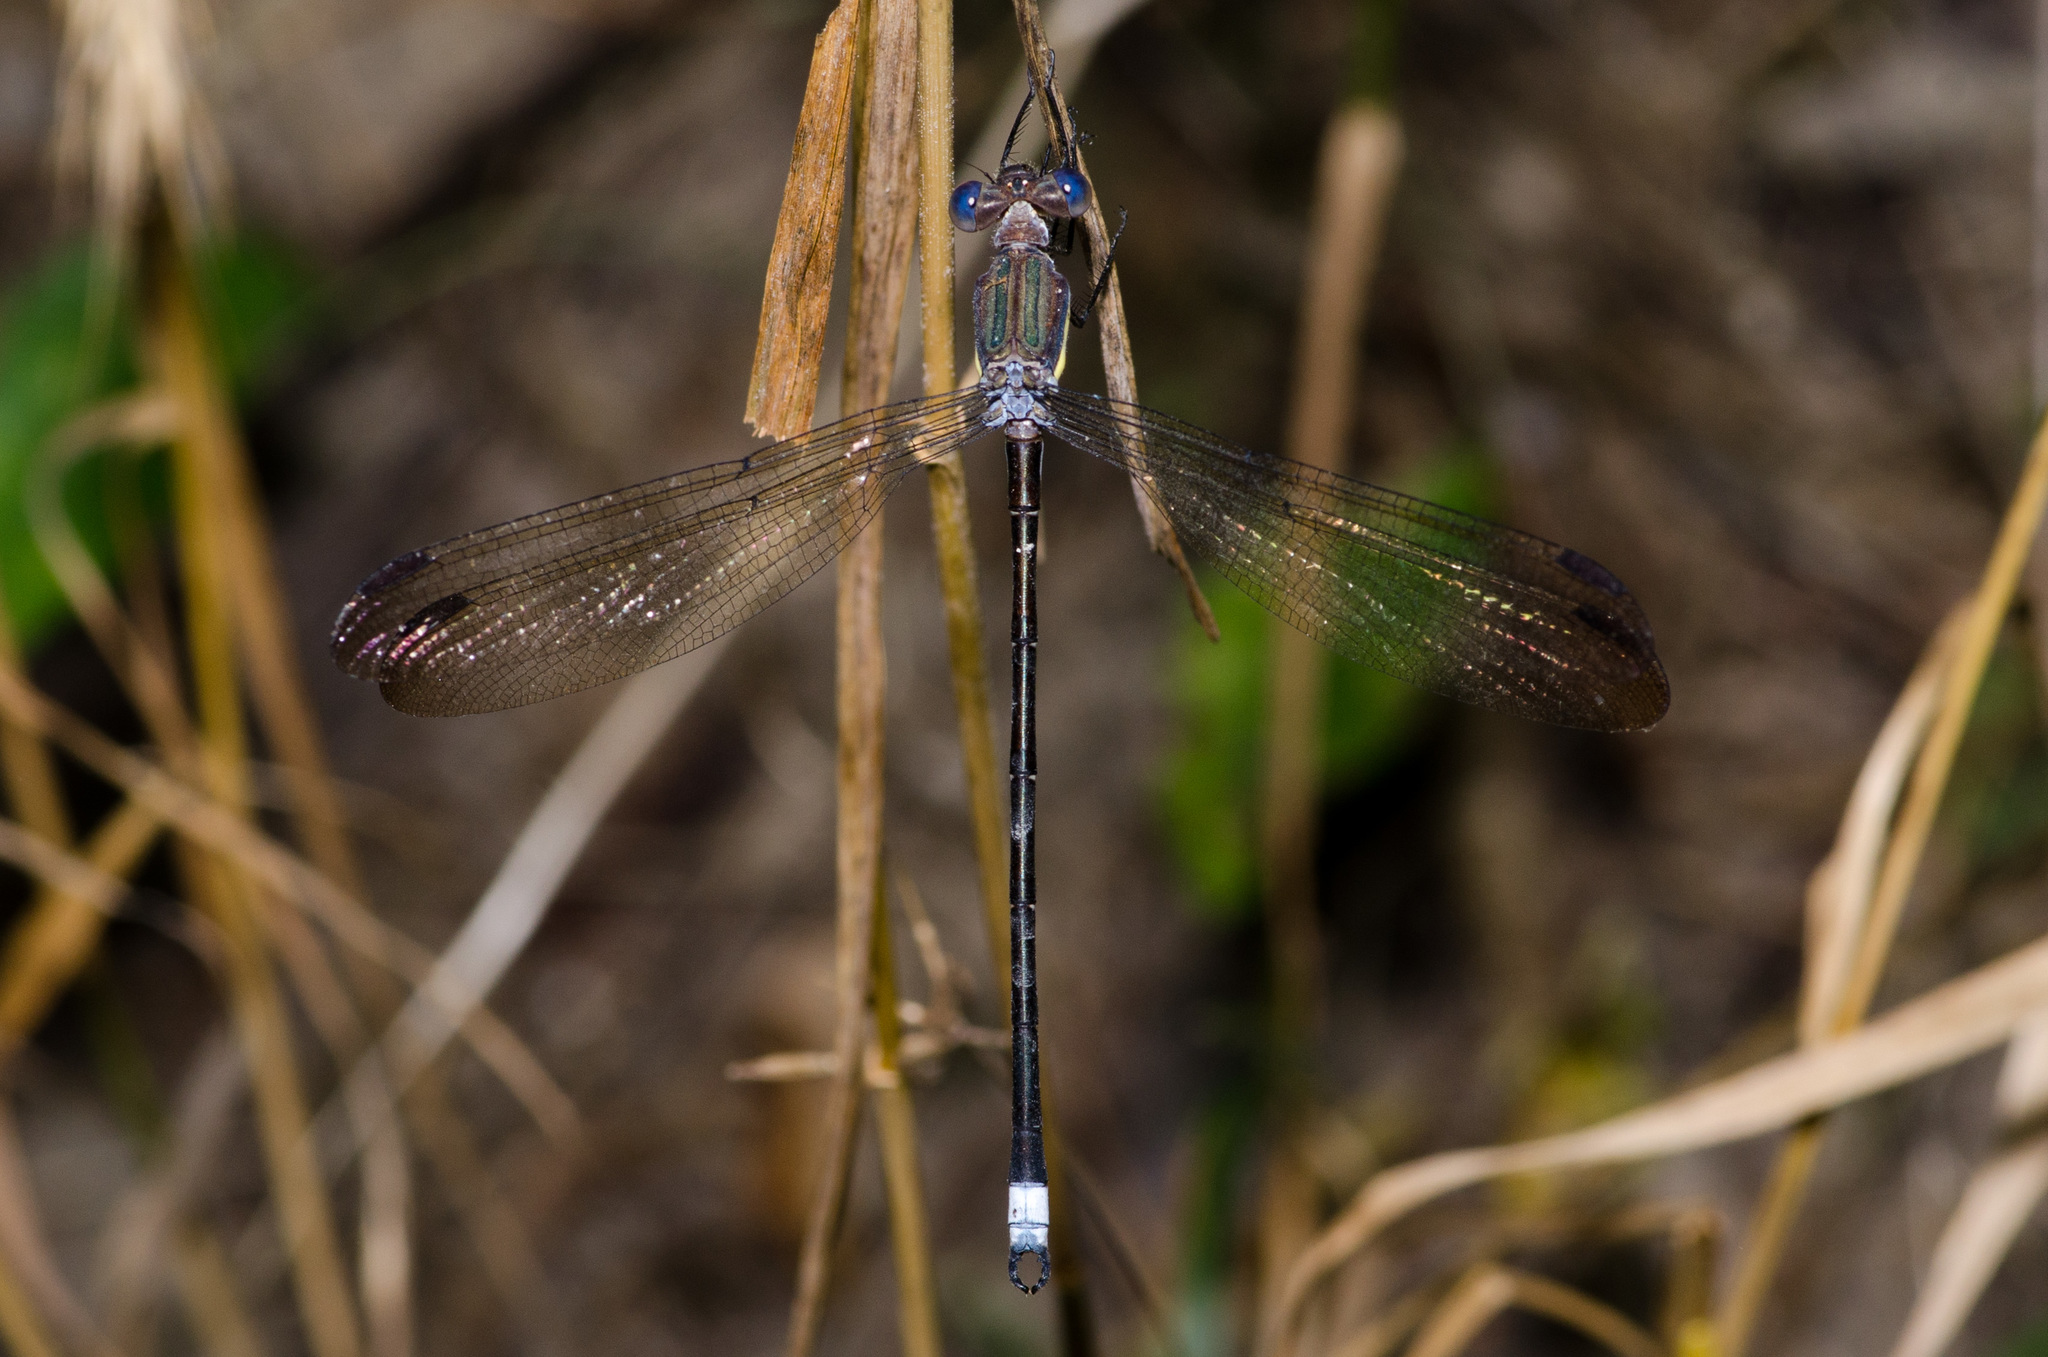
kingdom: Animalia
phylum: Arthropoda
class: Insecta
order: Odonata
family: Lestidae
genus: Archilestes
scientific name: Archilestes grandis
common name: Great spreadwing
